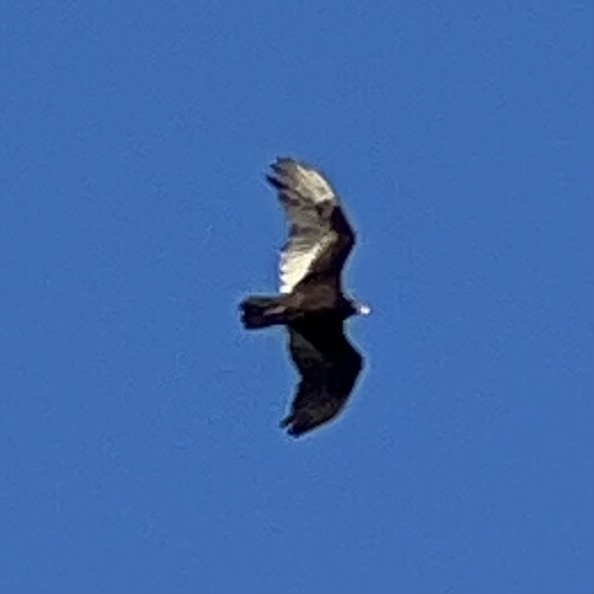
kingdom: Animalia
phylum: Chordata
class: Aves
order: Accipitriformes
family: Cathartidae
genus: Cathartes
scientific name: Cathartes aura
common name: Turkey vulture
